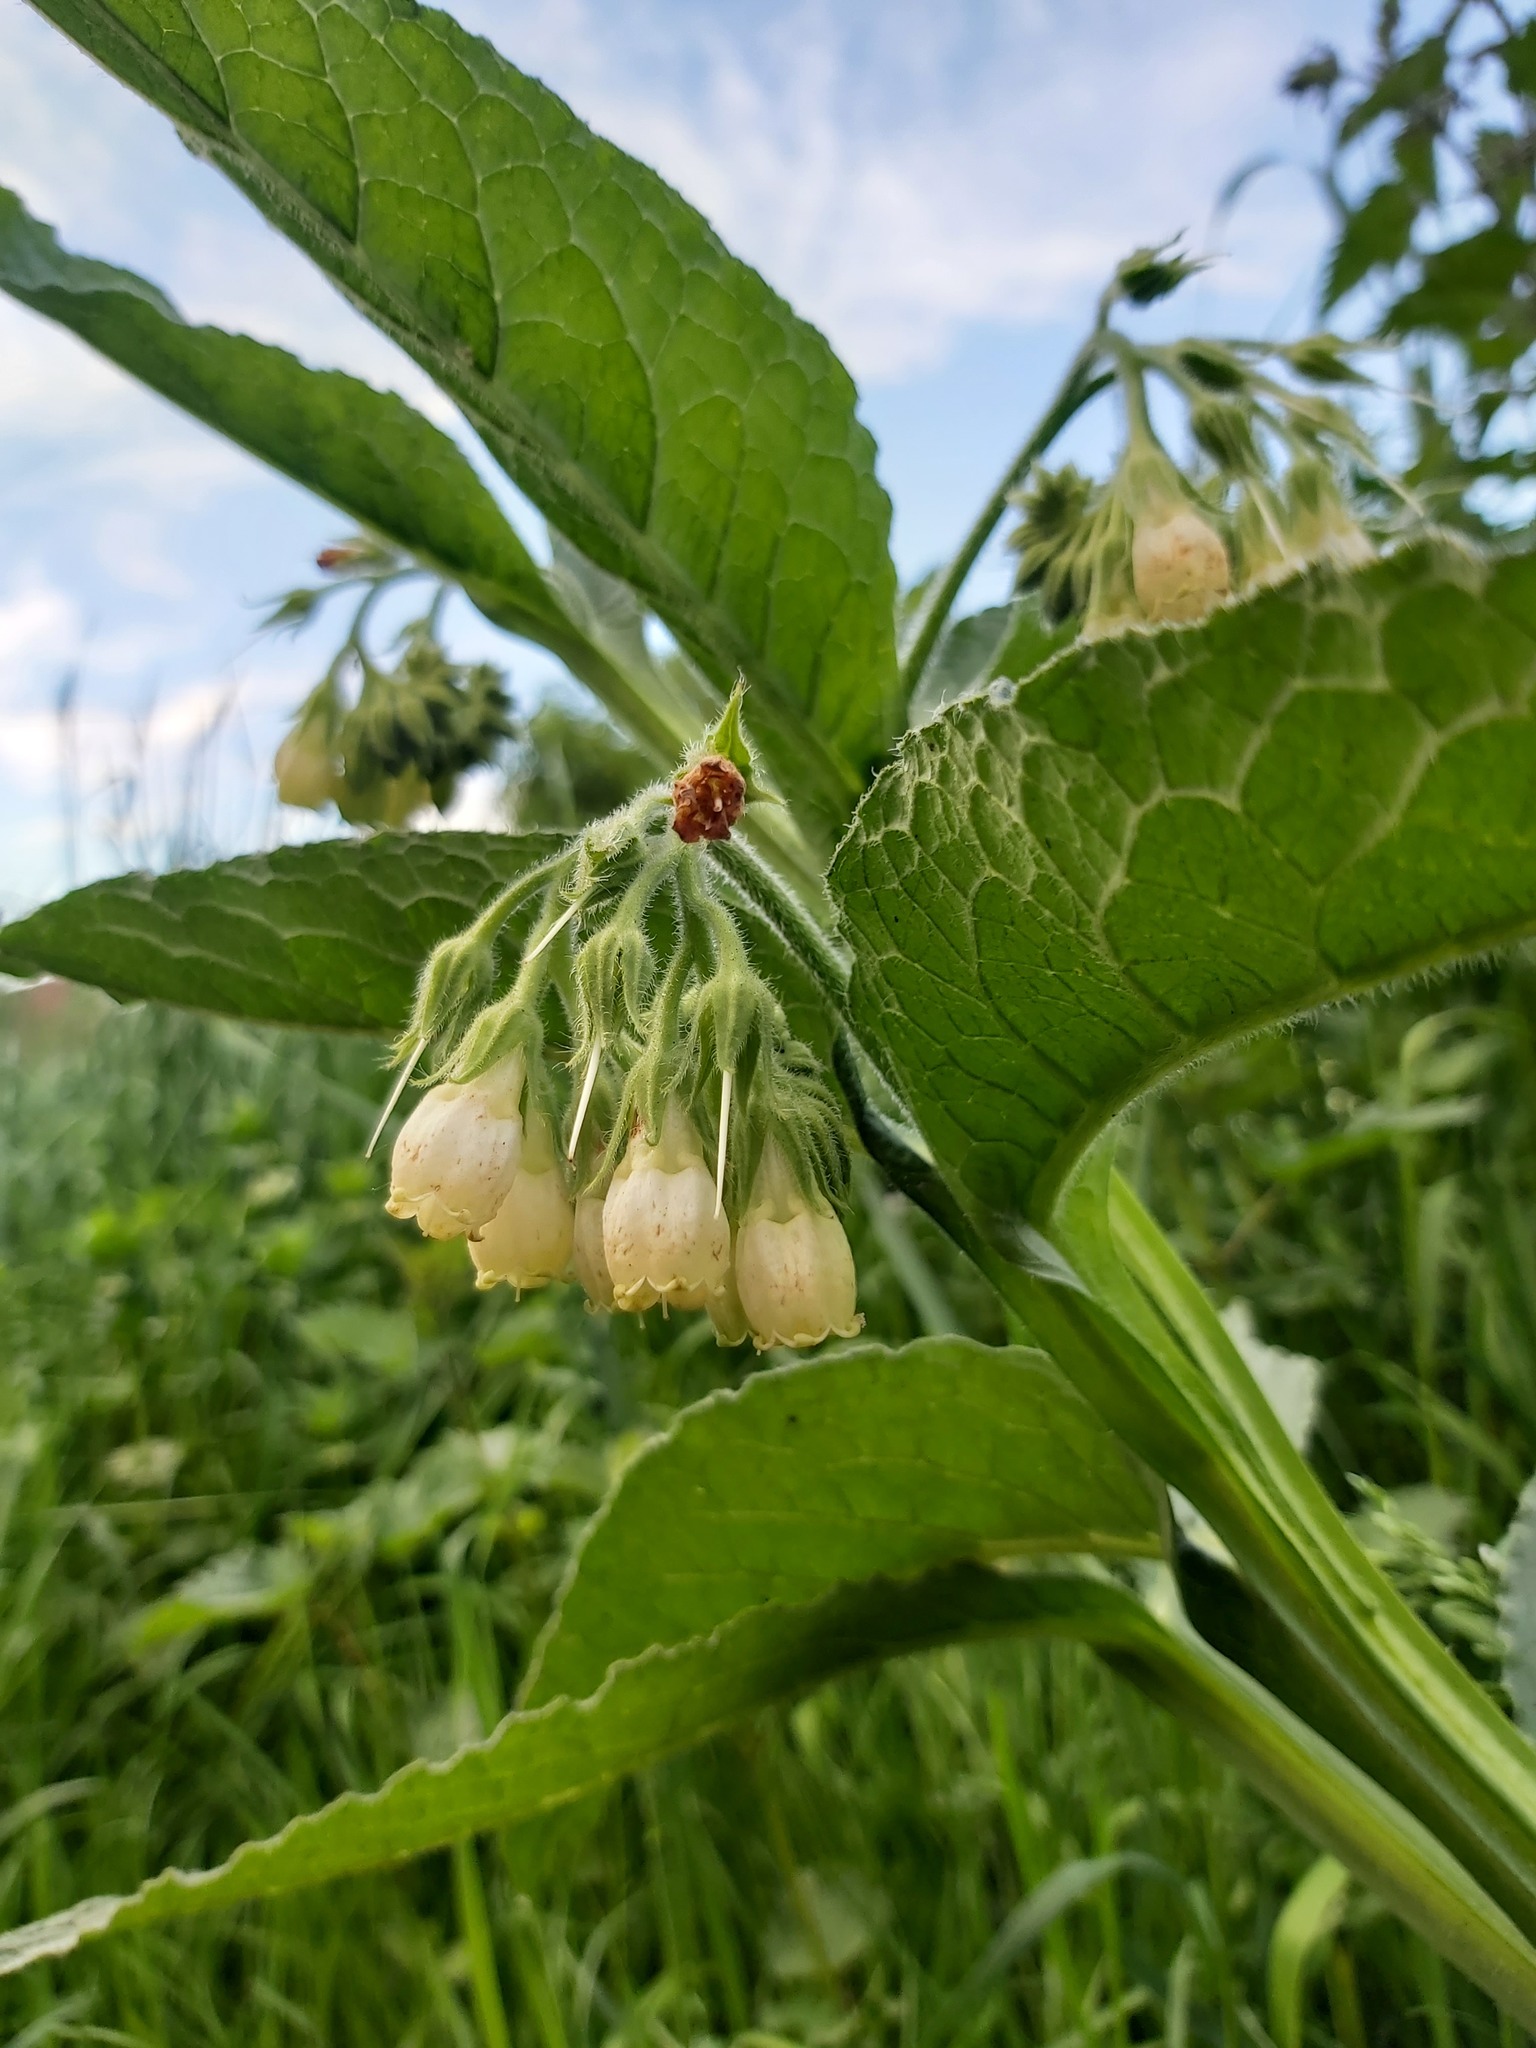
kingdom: Plantae
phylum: Tracheophyta
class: Magnoliopsida
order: Boraginales
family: Boraginaceae
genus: Symphytum
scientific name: Symphytum officinale
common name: Common comfrey
